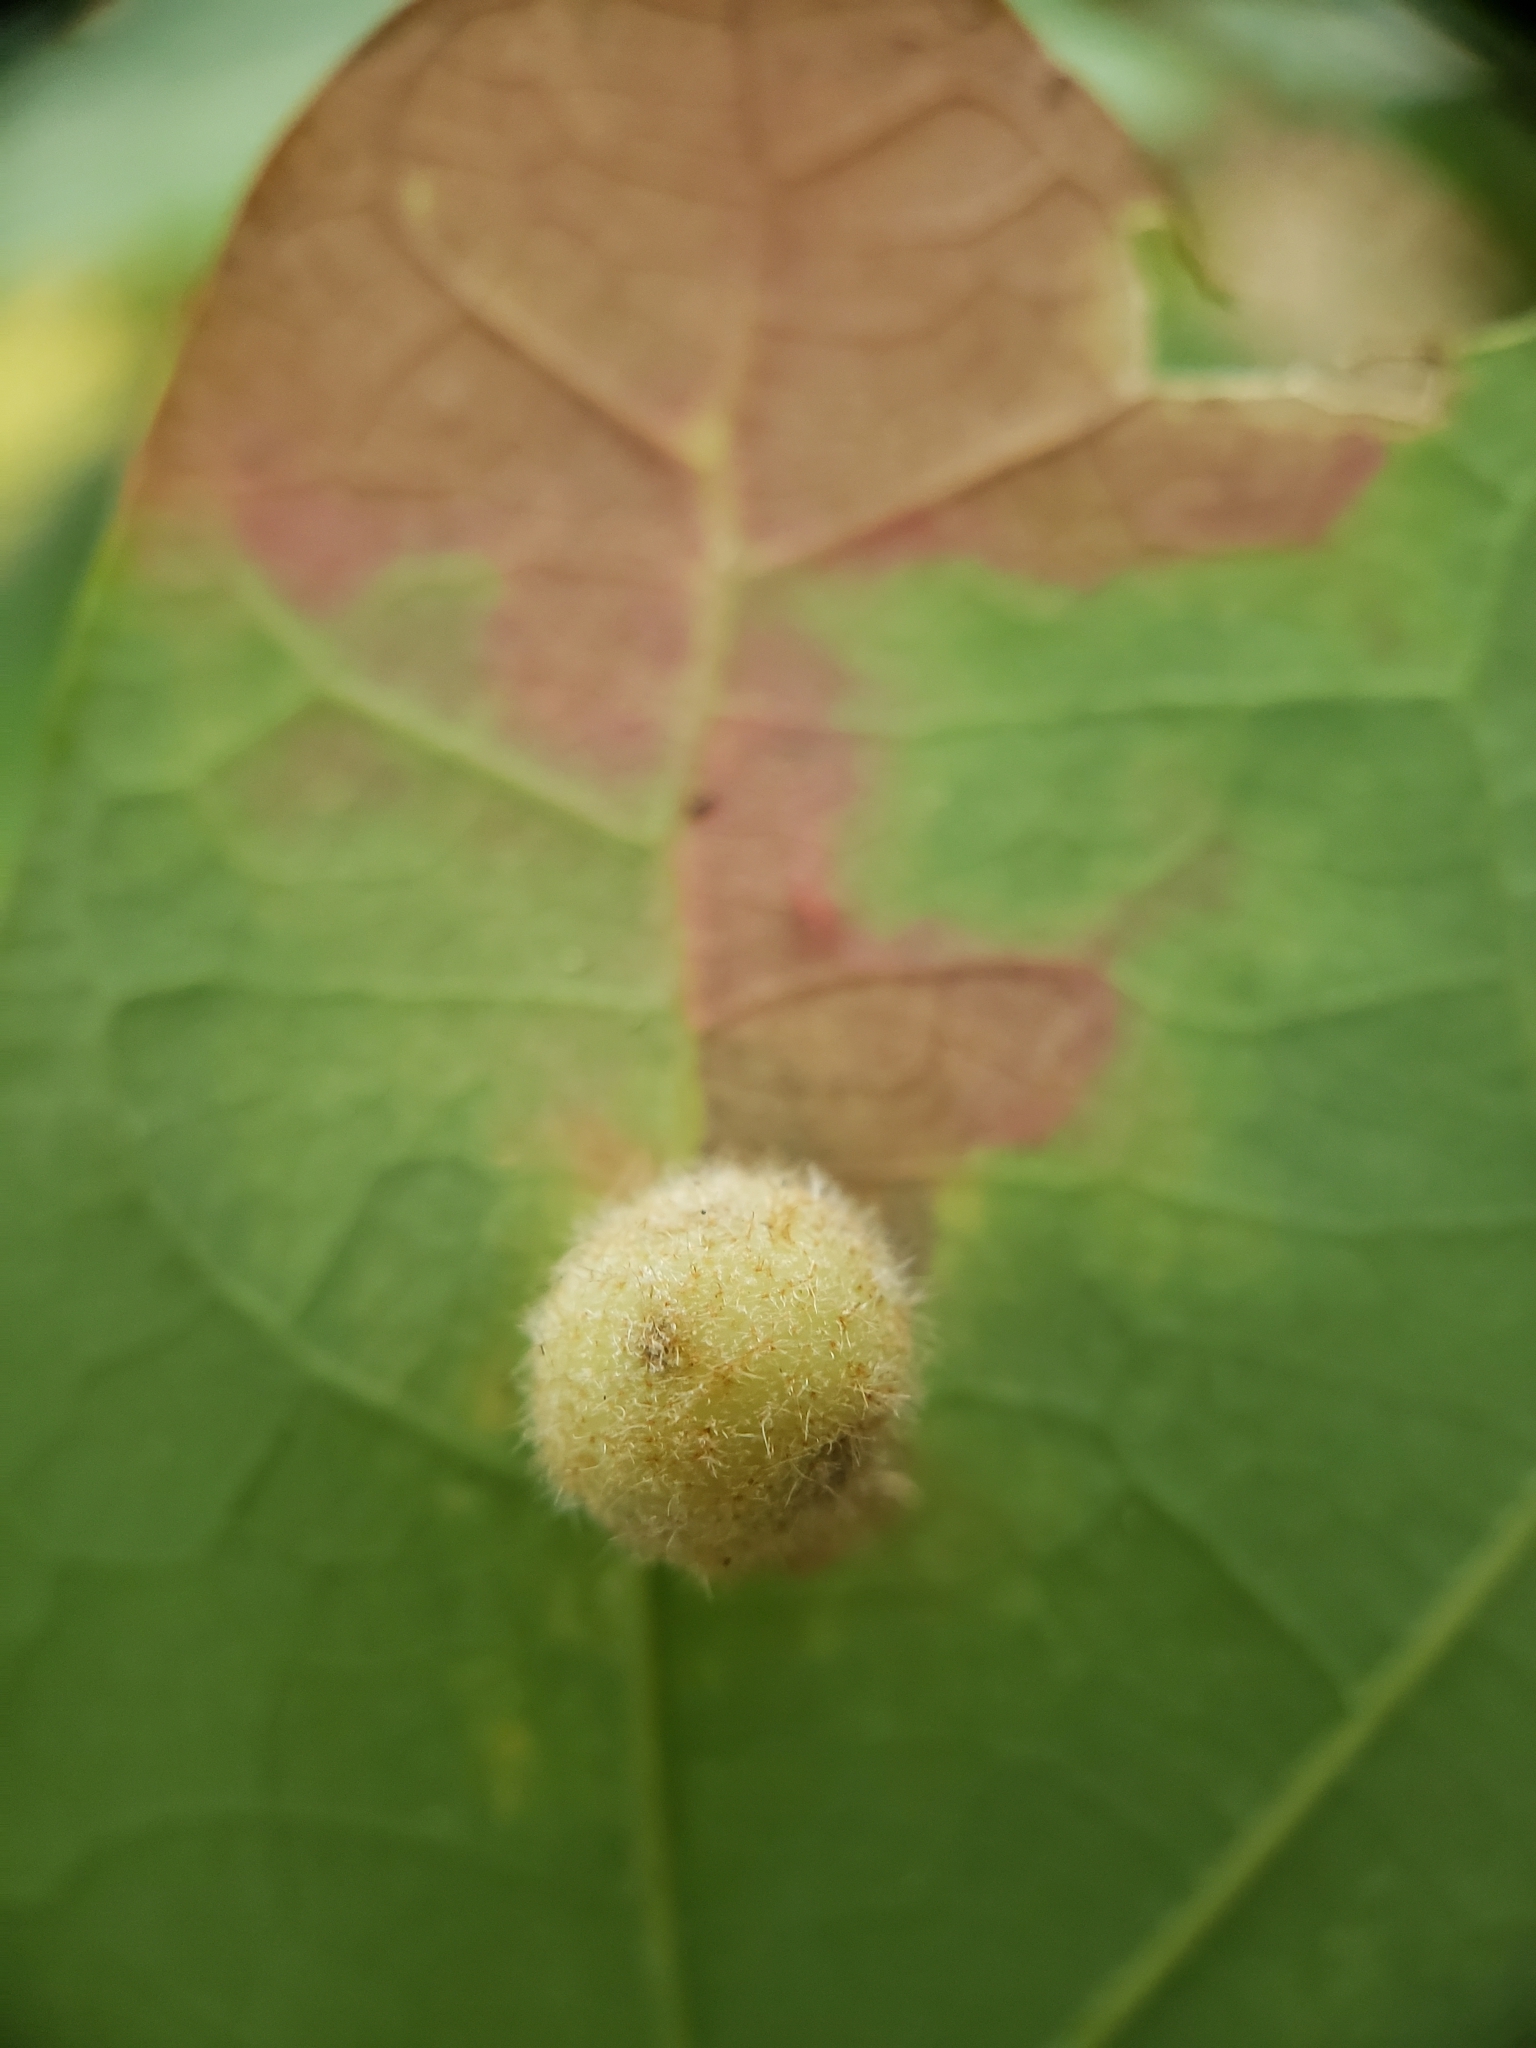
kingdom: Animalia
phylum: Arthropoda
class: Insecta
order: Hymenoptera
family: Cynipidae
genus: Philonix
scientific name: Philonix fulvicollis
